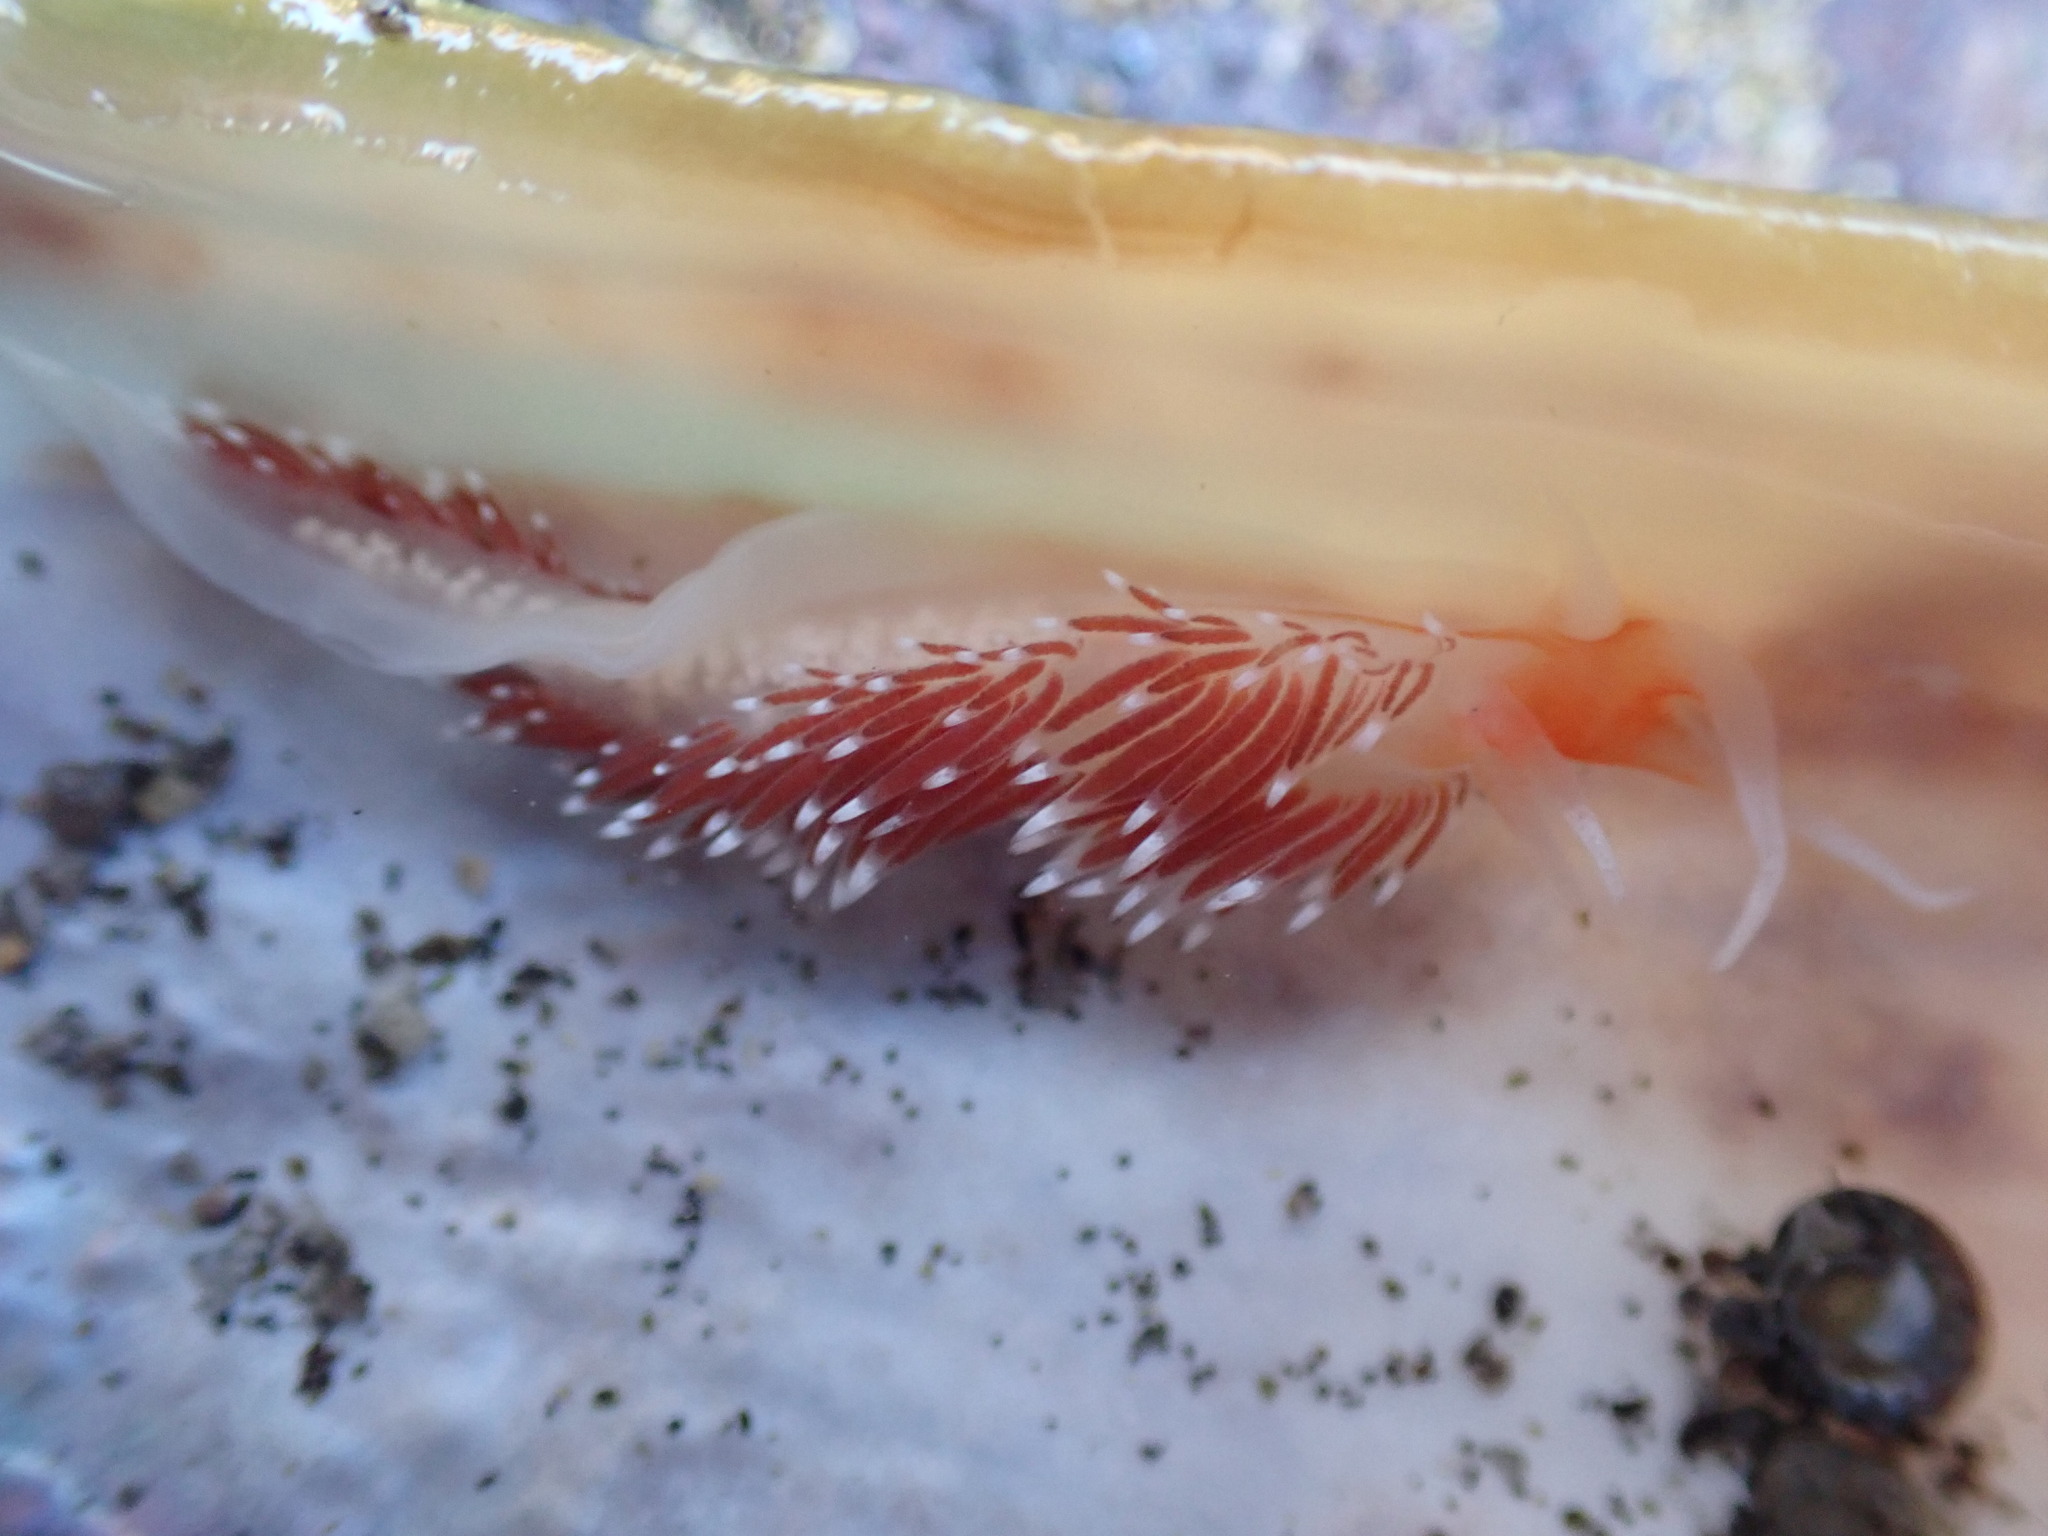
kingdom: Animalia
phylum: Mollusca
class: Gastropoda
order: Nudibranchia
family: Facelinidae
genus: Phidiana
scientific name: Phidiana milleri
